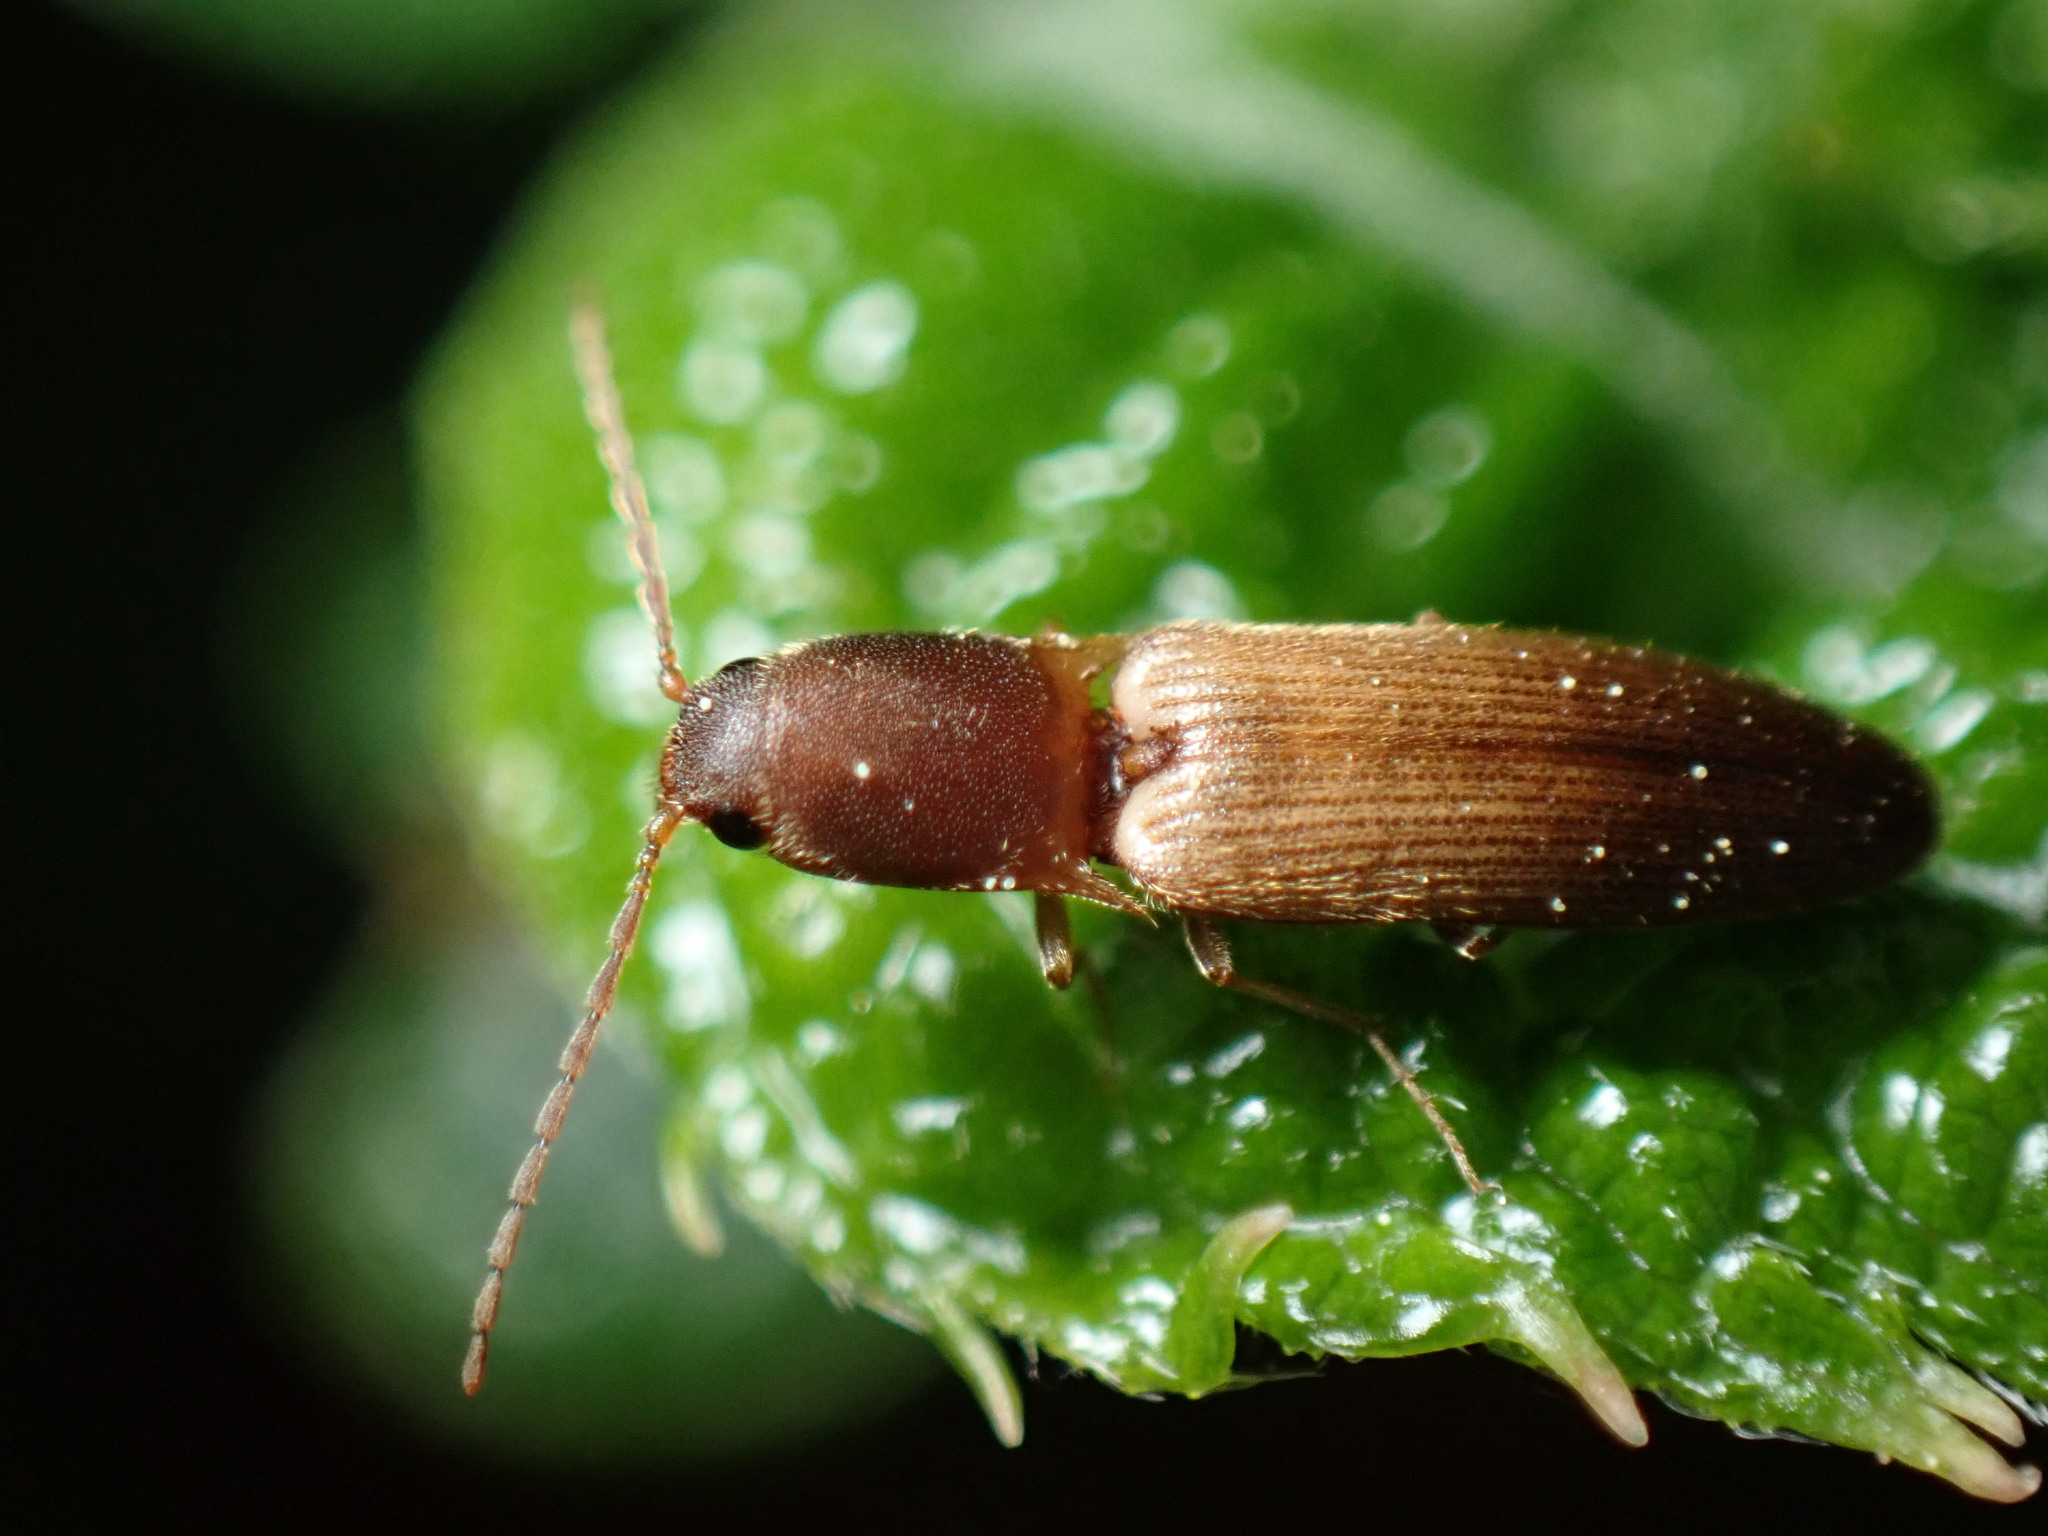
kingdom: Animalia
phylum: Arthropoda
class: Insecta
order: Coleoptera
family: Elateridae
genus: Dolerosomus
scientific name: Dolerosomus silaceus
